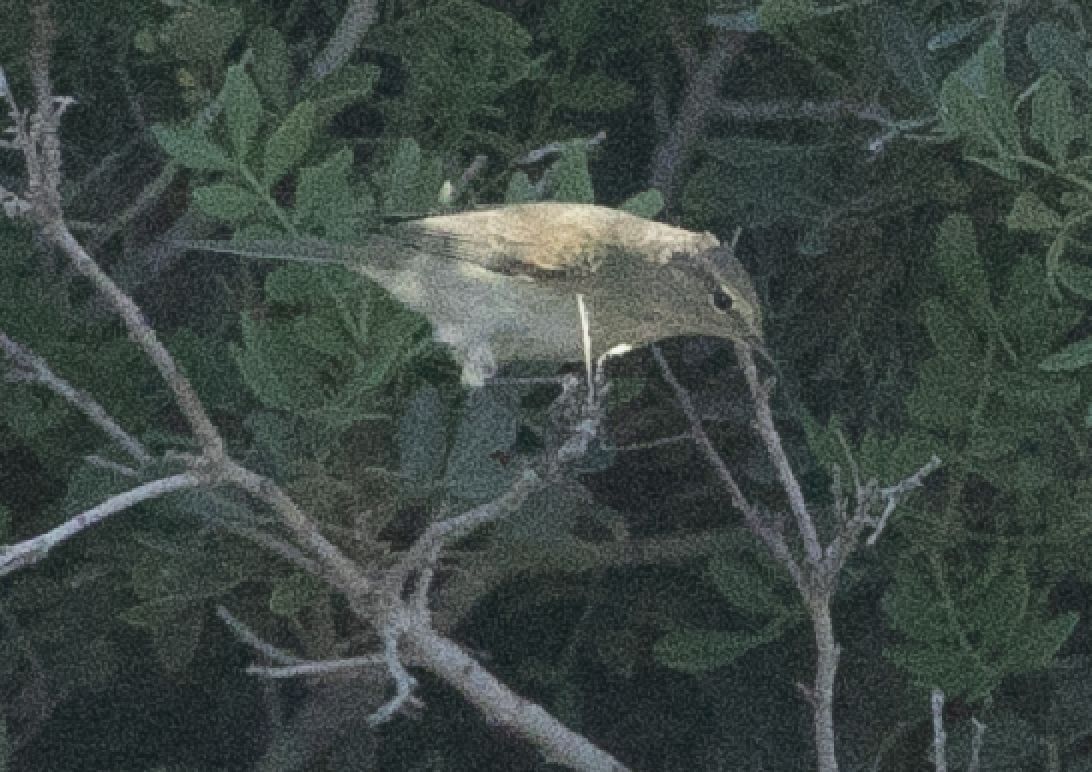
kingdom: Animalia
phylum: Chordata
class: Aves
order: Passeriformes
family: Phylloscopidae
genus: Phylloscopus
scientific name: Phylloscopus collybita
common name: Common chiffchaff
